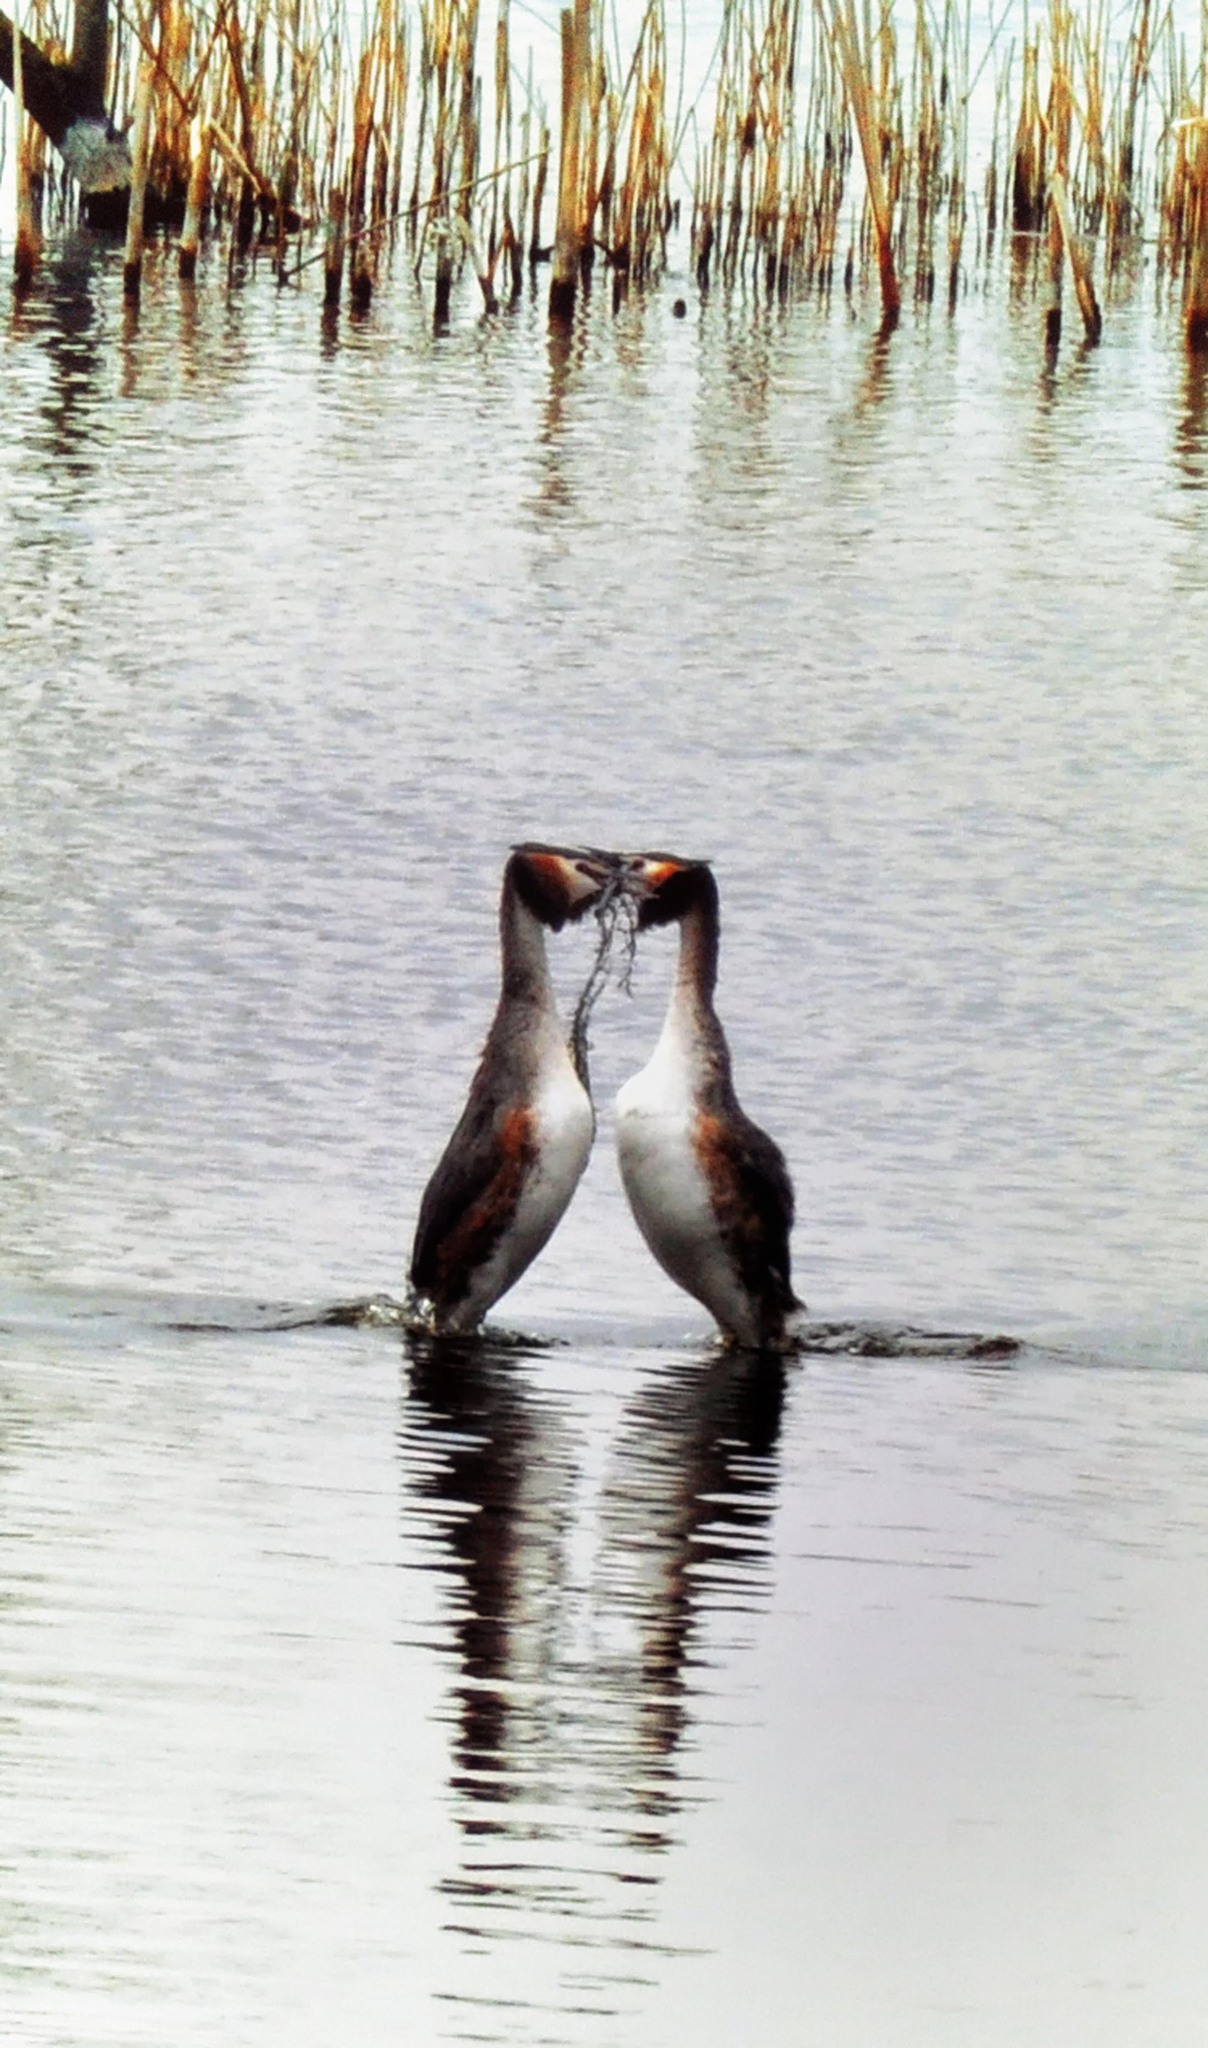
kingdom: Animalia
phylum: Chordata
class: Aves
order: Podicipediformes
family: Podicipedidae
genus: Podiceps
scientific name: Podiceps cristatus
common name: Great crested grebe
